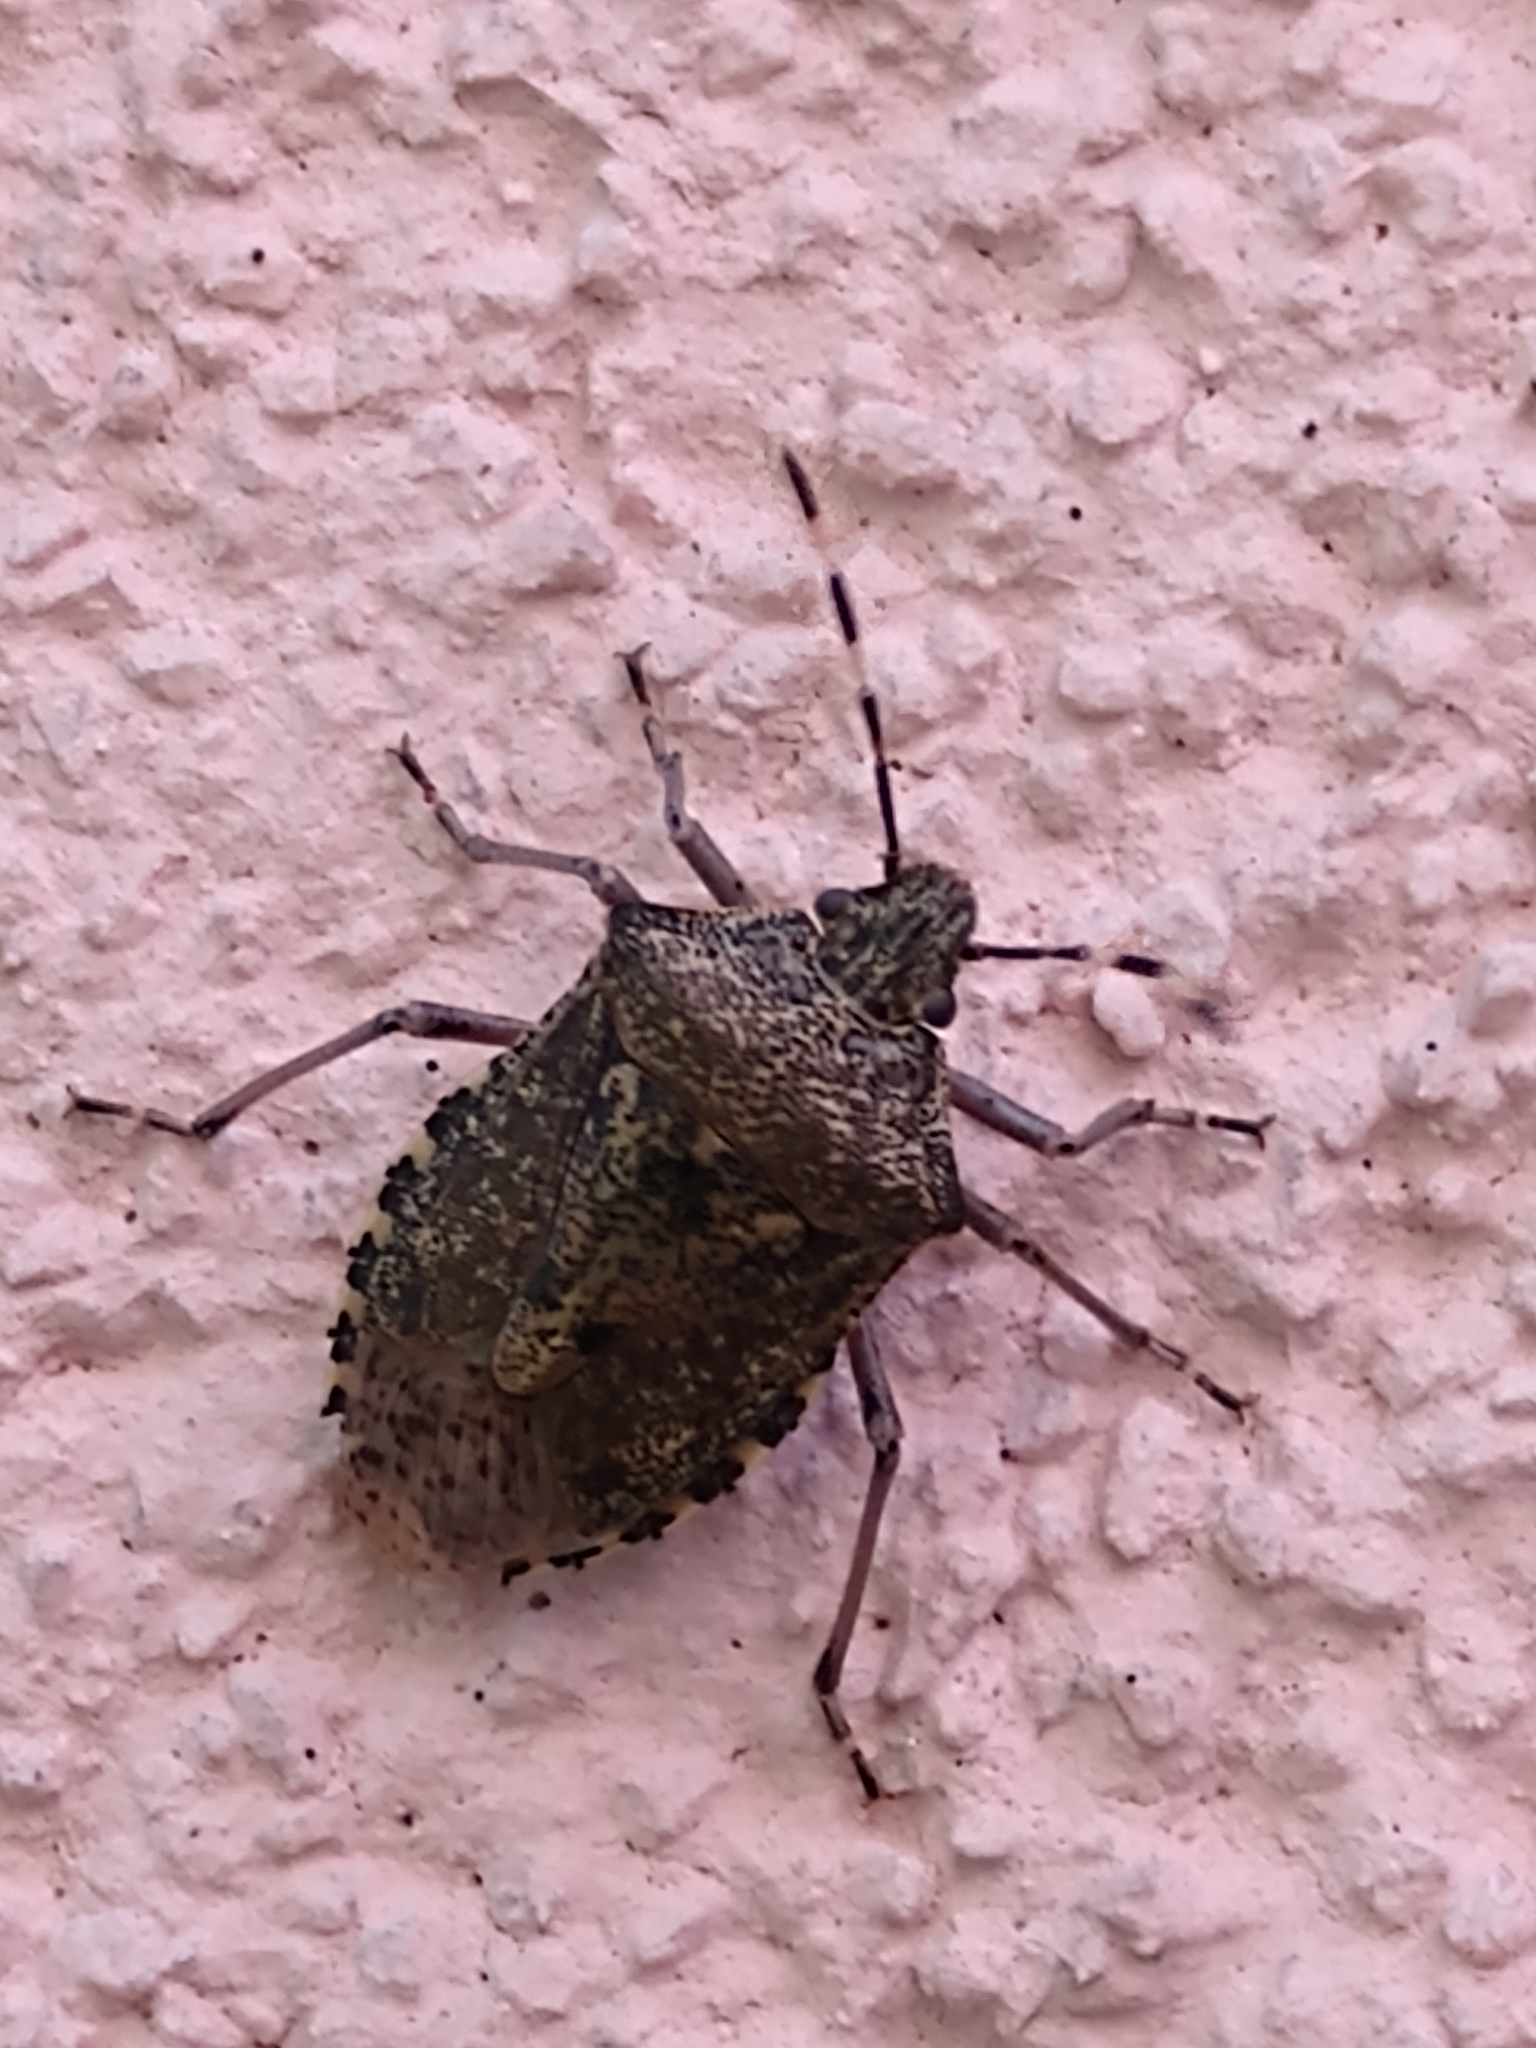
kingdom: Animalia
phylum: Arthropoda
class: Insecta
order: Hemiptera
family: Pentatomidae
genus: Rhaphigaster
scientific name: Rhaphigaster nebulosa
